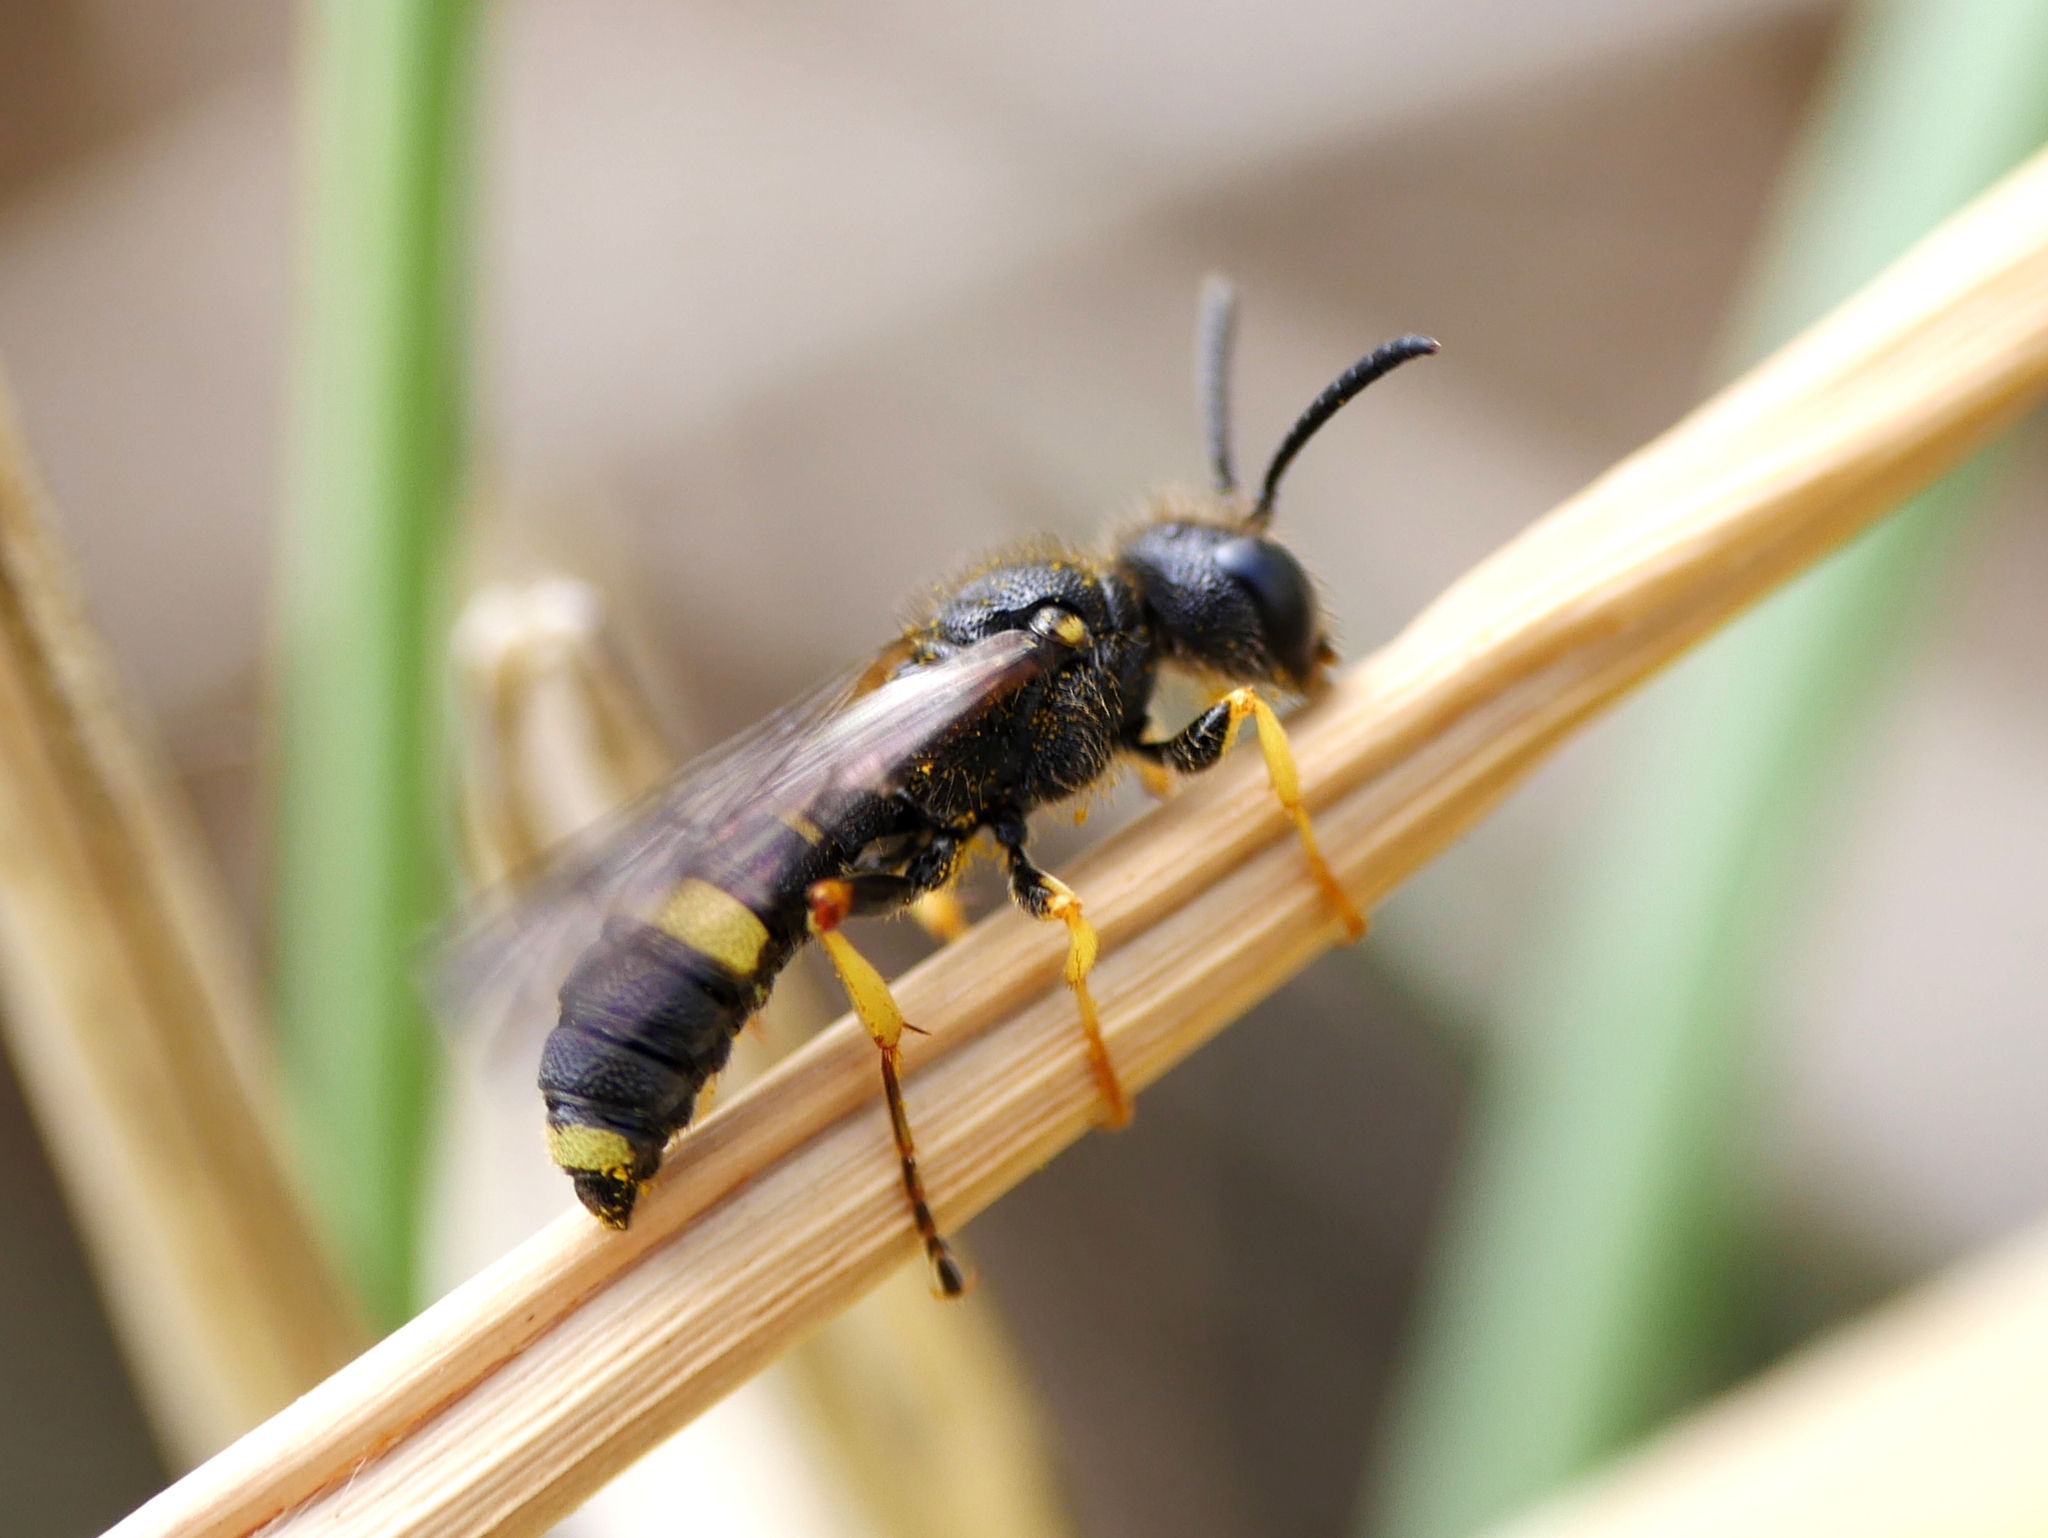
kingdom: Animalia
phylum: Arthropoda
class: Insecta
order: Hymenoptera
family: Crabronidae
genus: Cerceris
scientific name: Cerceris rybyensis
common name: Ornate tailed digger wasp
